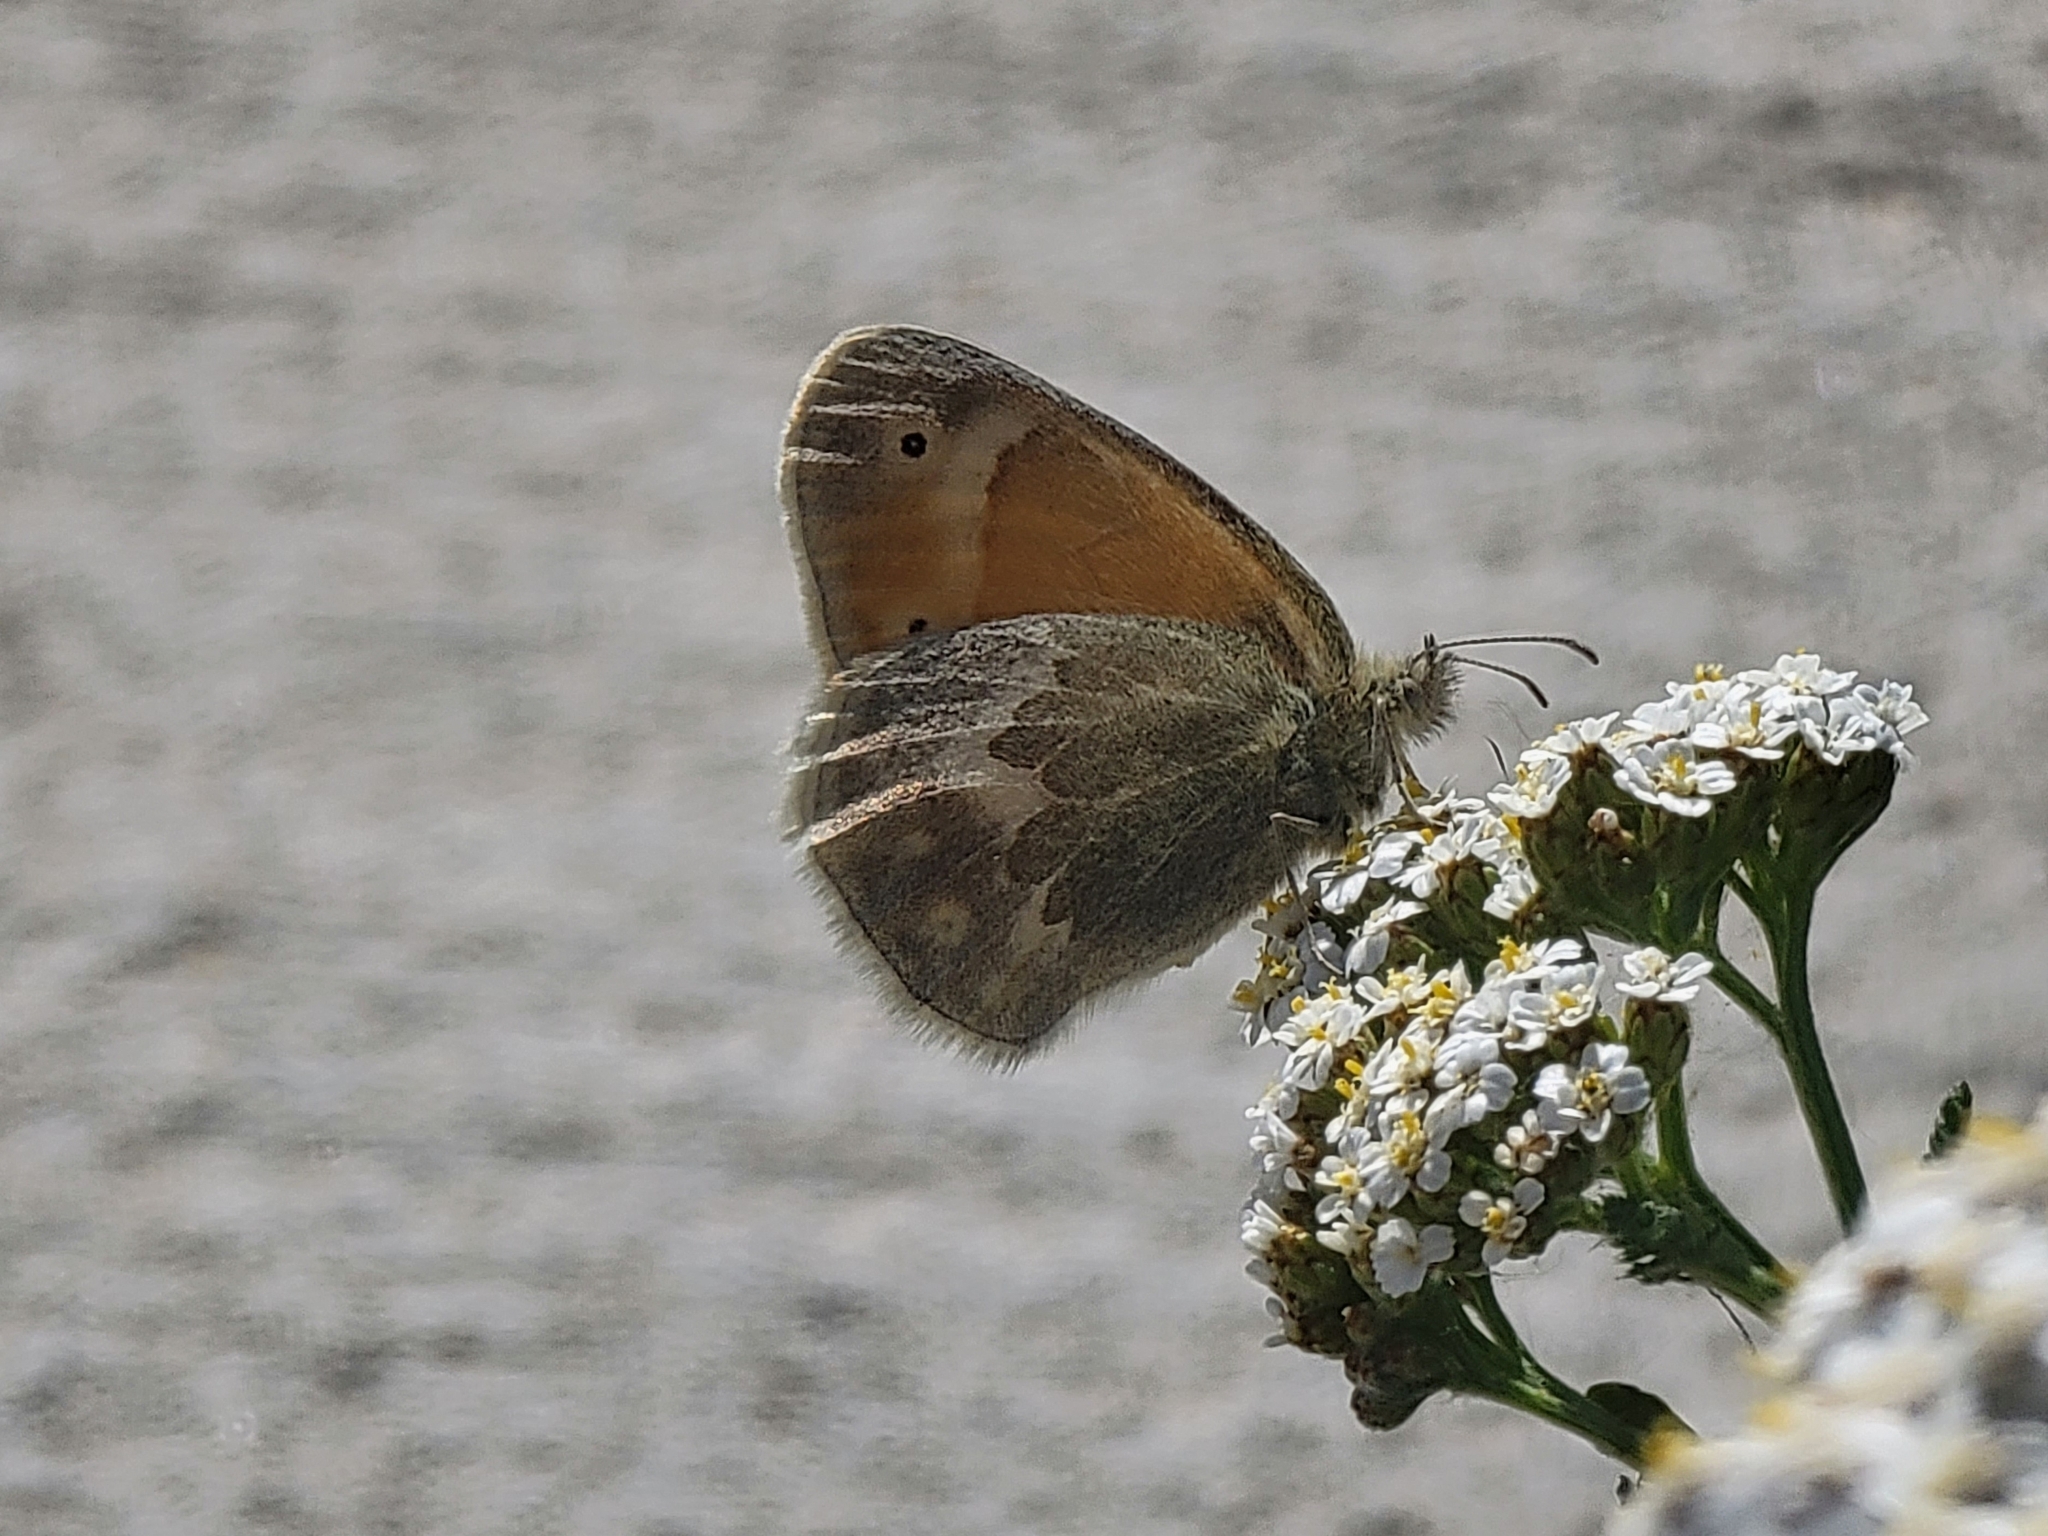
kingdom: Animalia
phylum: Arthropoda
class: Insecta
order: Lepidoptera
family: Nymphalidae
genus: Coenonympha
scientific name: Coenonympha california
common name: Common ringlet
